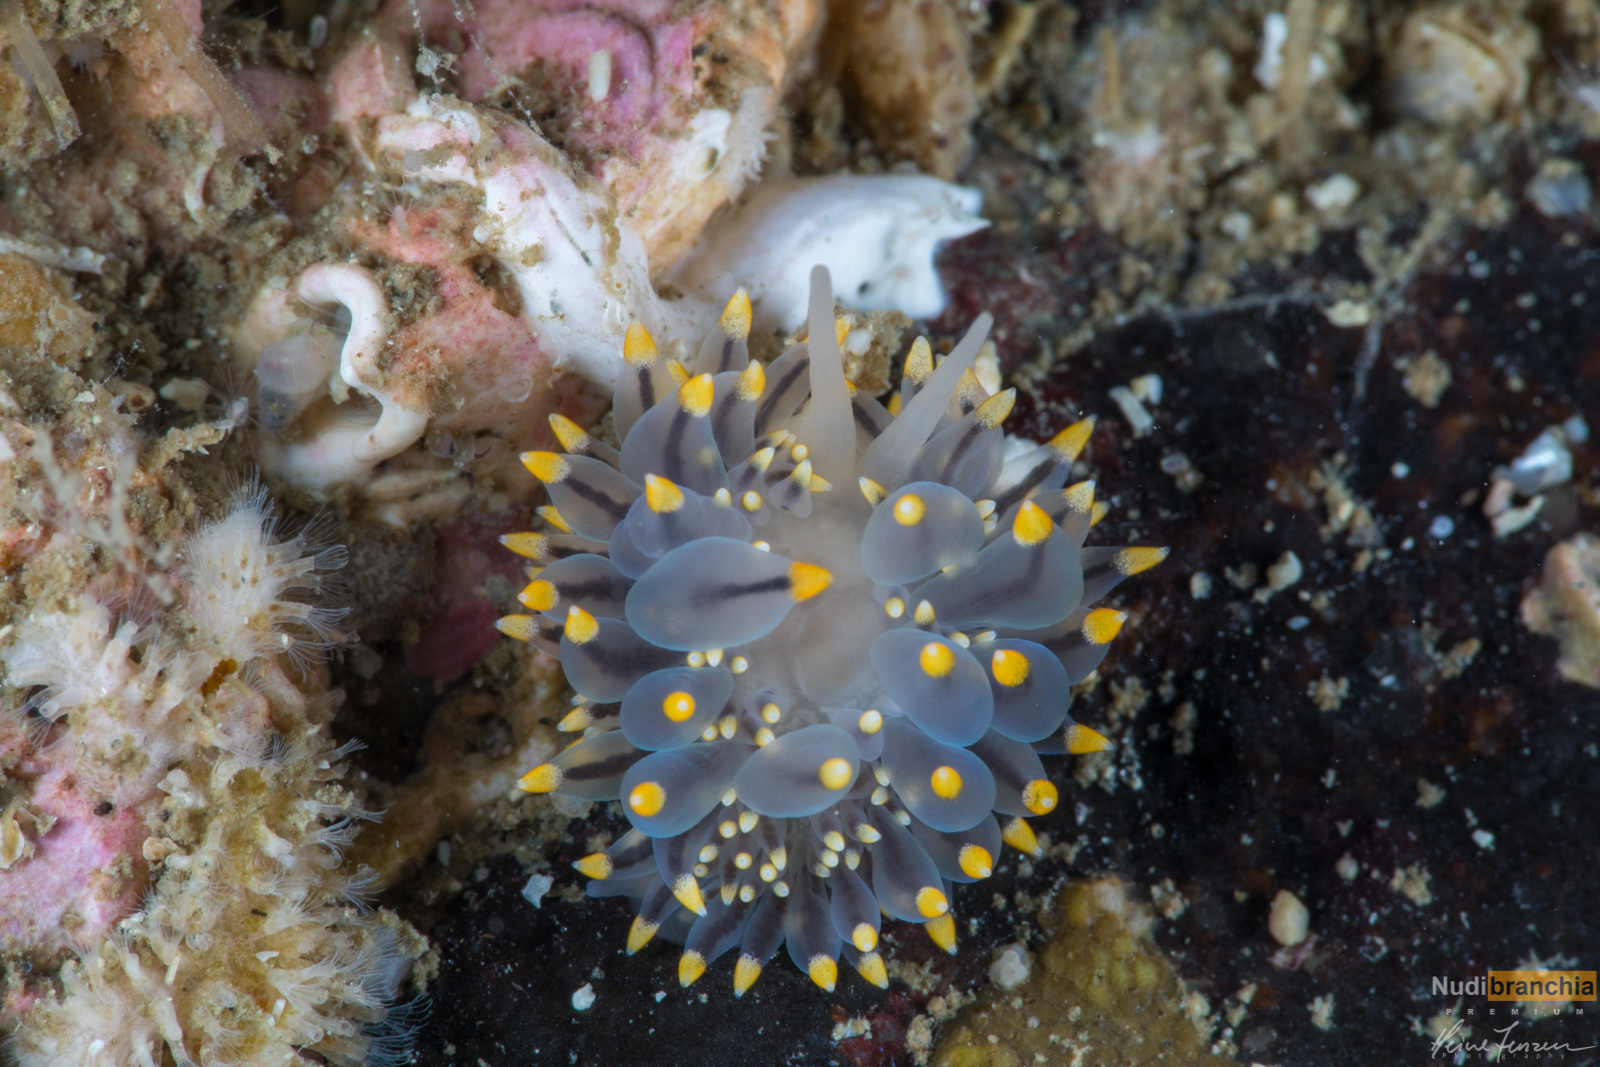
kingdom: Animalia
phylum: Mollusca
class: Gastropoda
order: Nudibranchia
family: Eubranchidae
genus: Eubranchus
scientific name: Eubranchus tricolor
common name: Painted balloon aeolis
